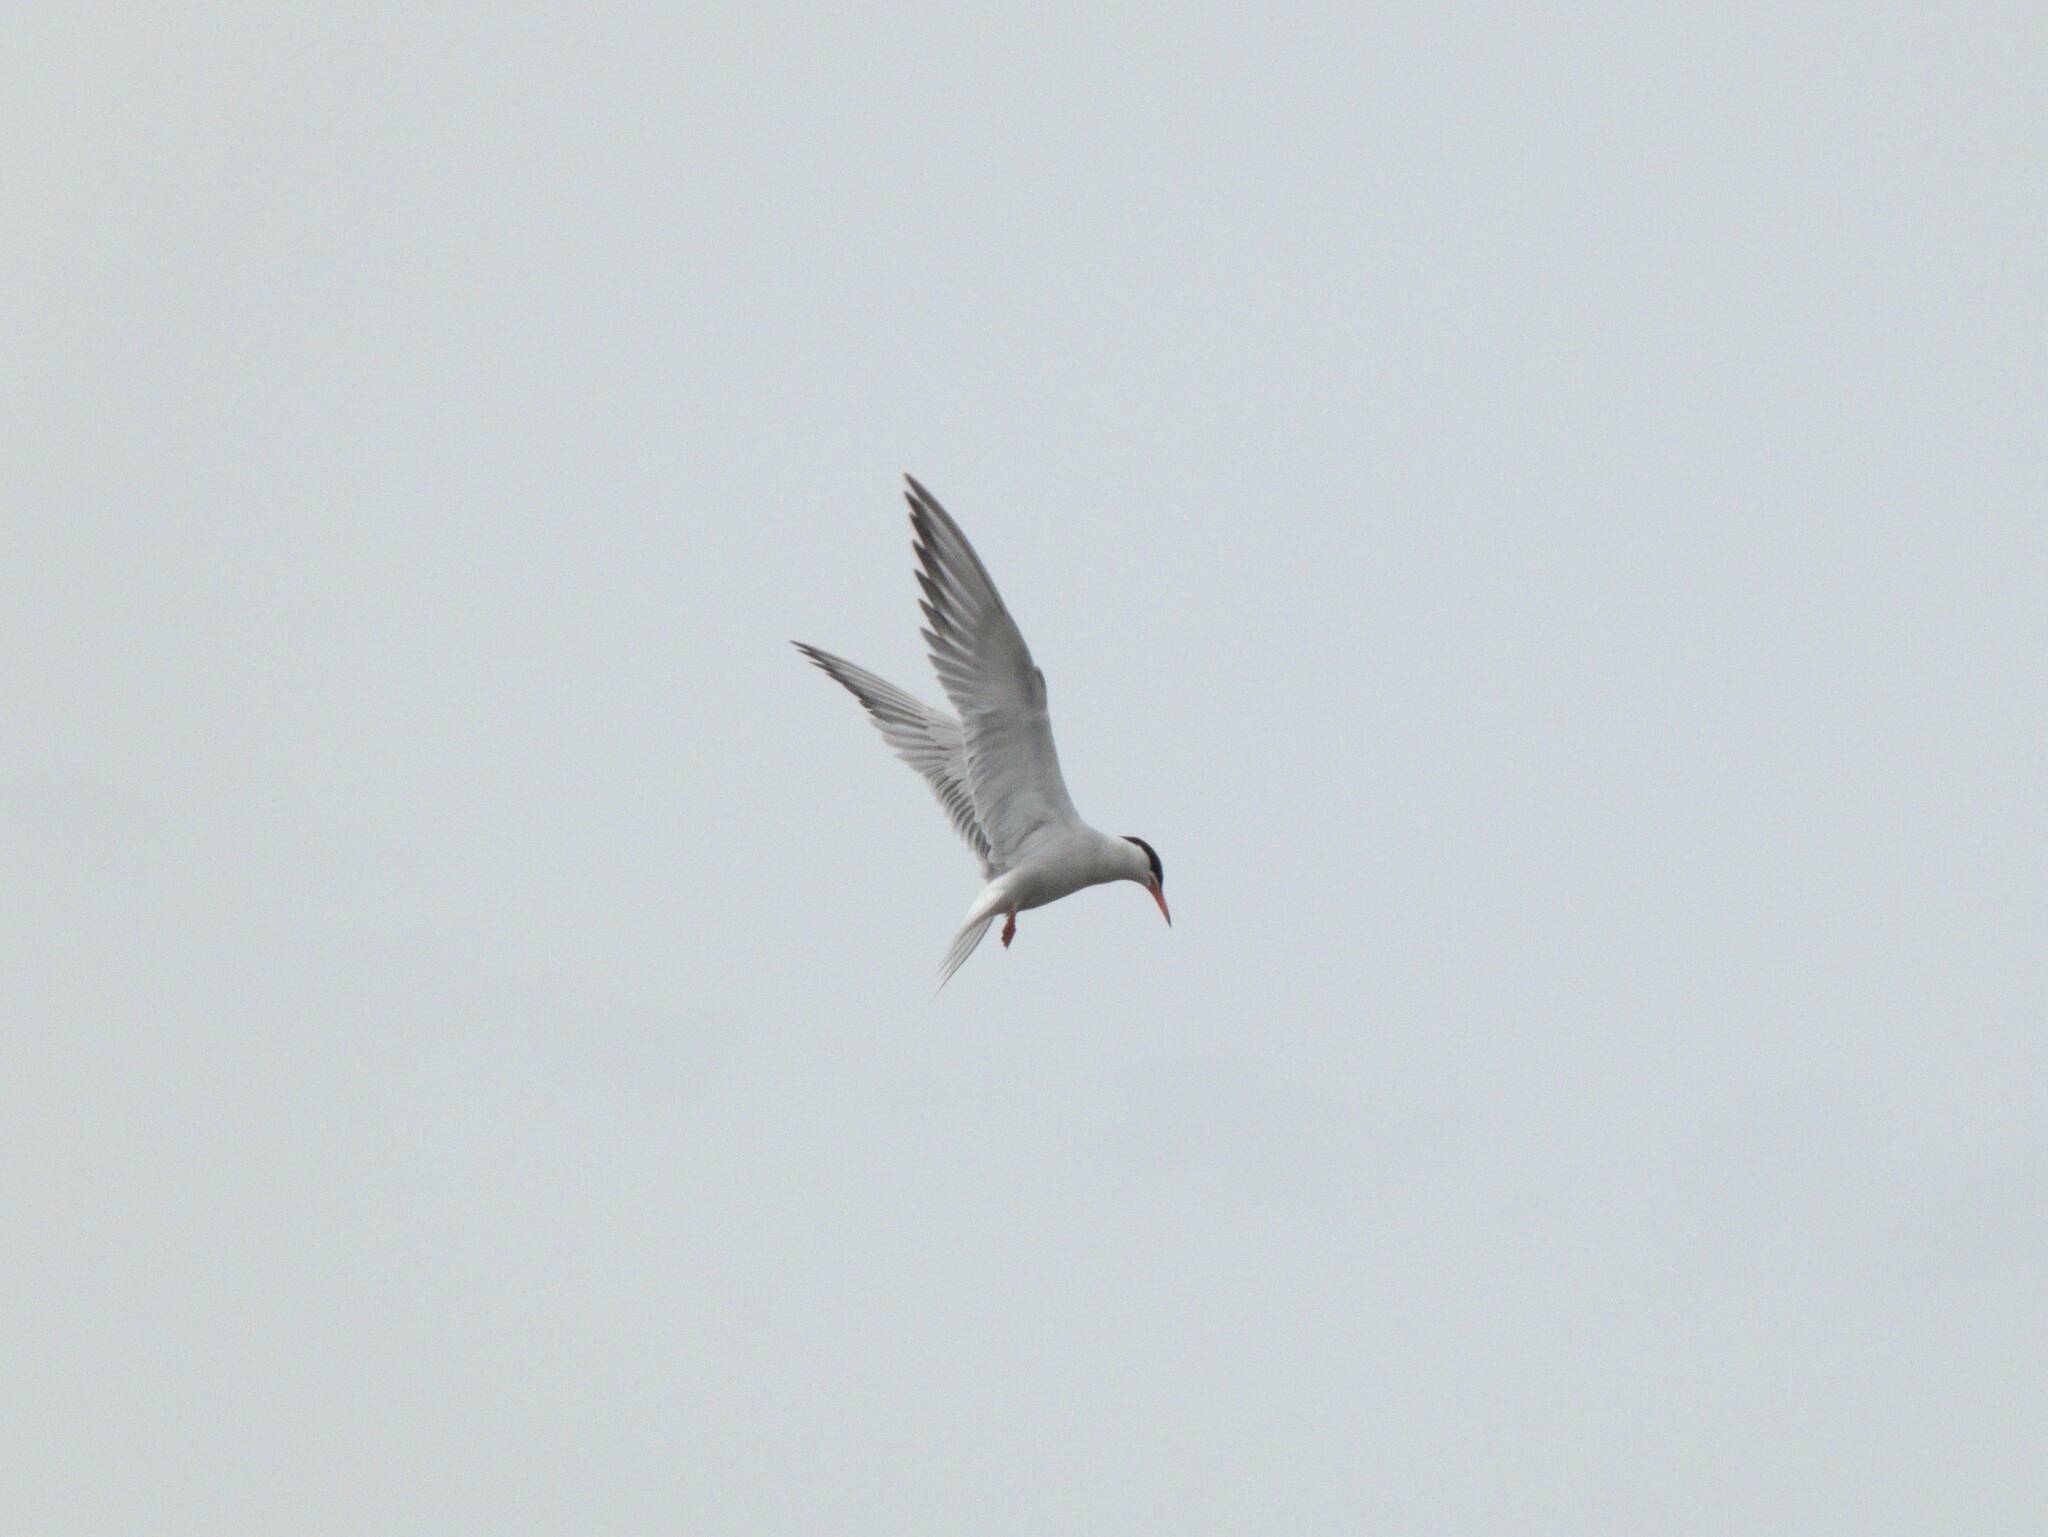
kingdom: Animalia
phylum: Chordata
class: Aves
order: Charadriiformes
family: Laridae
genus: Sterna
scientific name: Sterna hirundo
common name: Common tern
